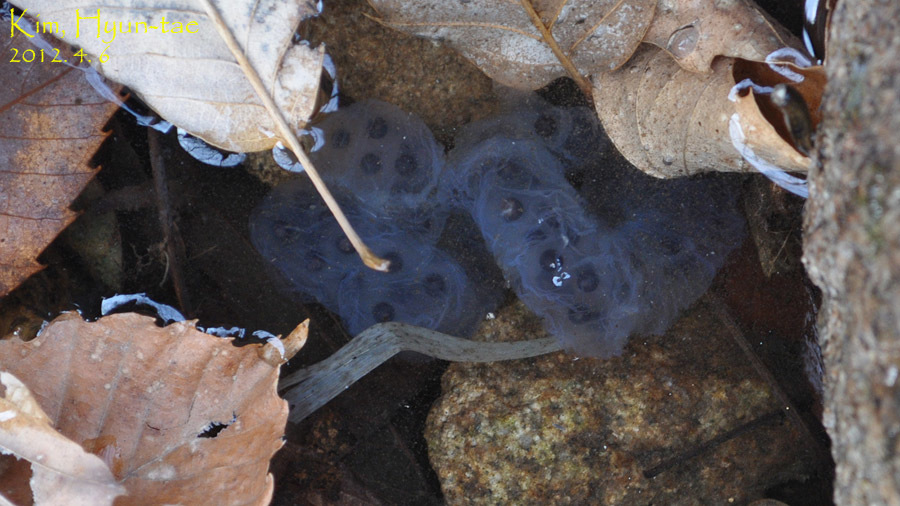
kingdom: Animalia
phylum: Chordata
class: Amphibia
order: Caudata
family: Hynobiidae
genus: Hynobius
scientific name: Hynobius leechii
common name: Gensan salamander
